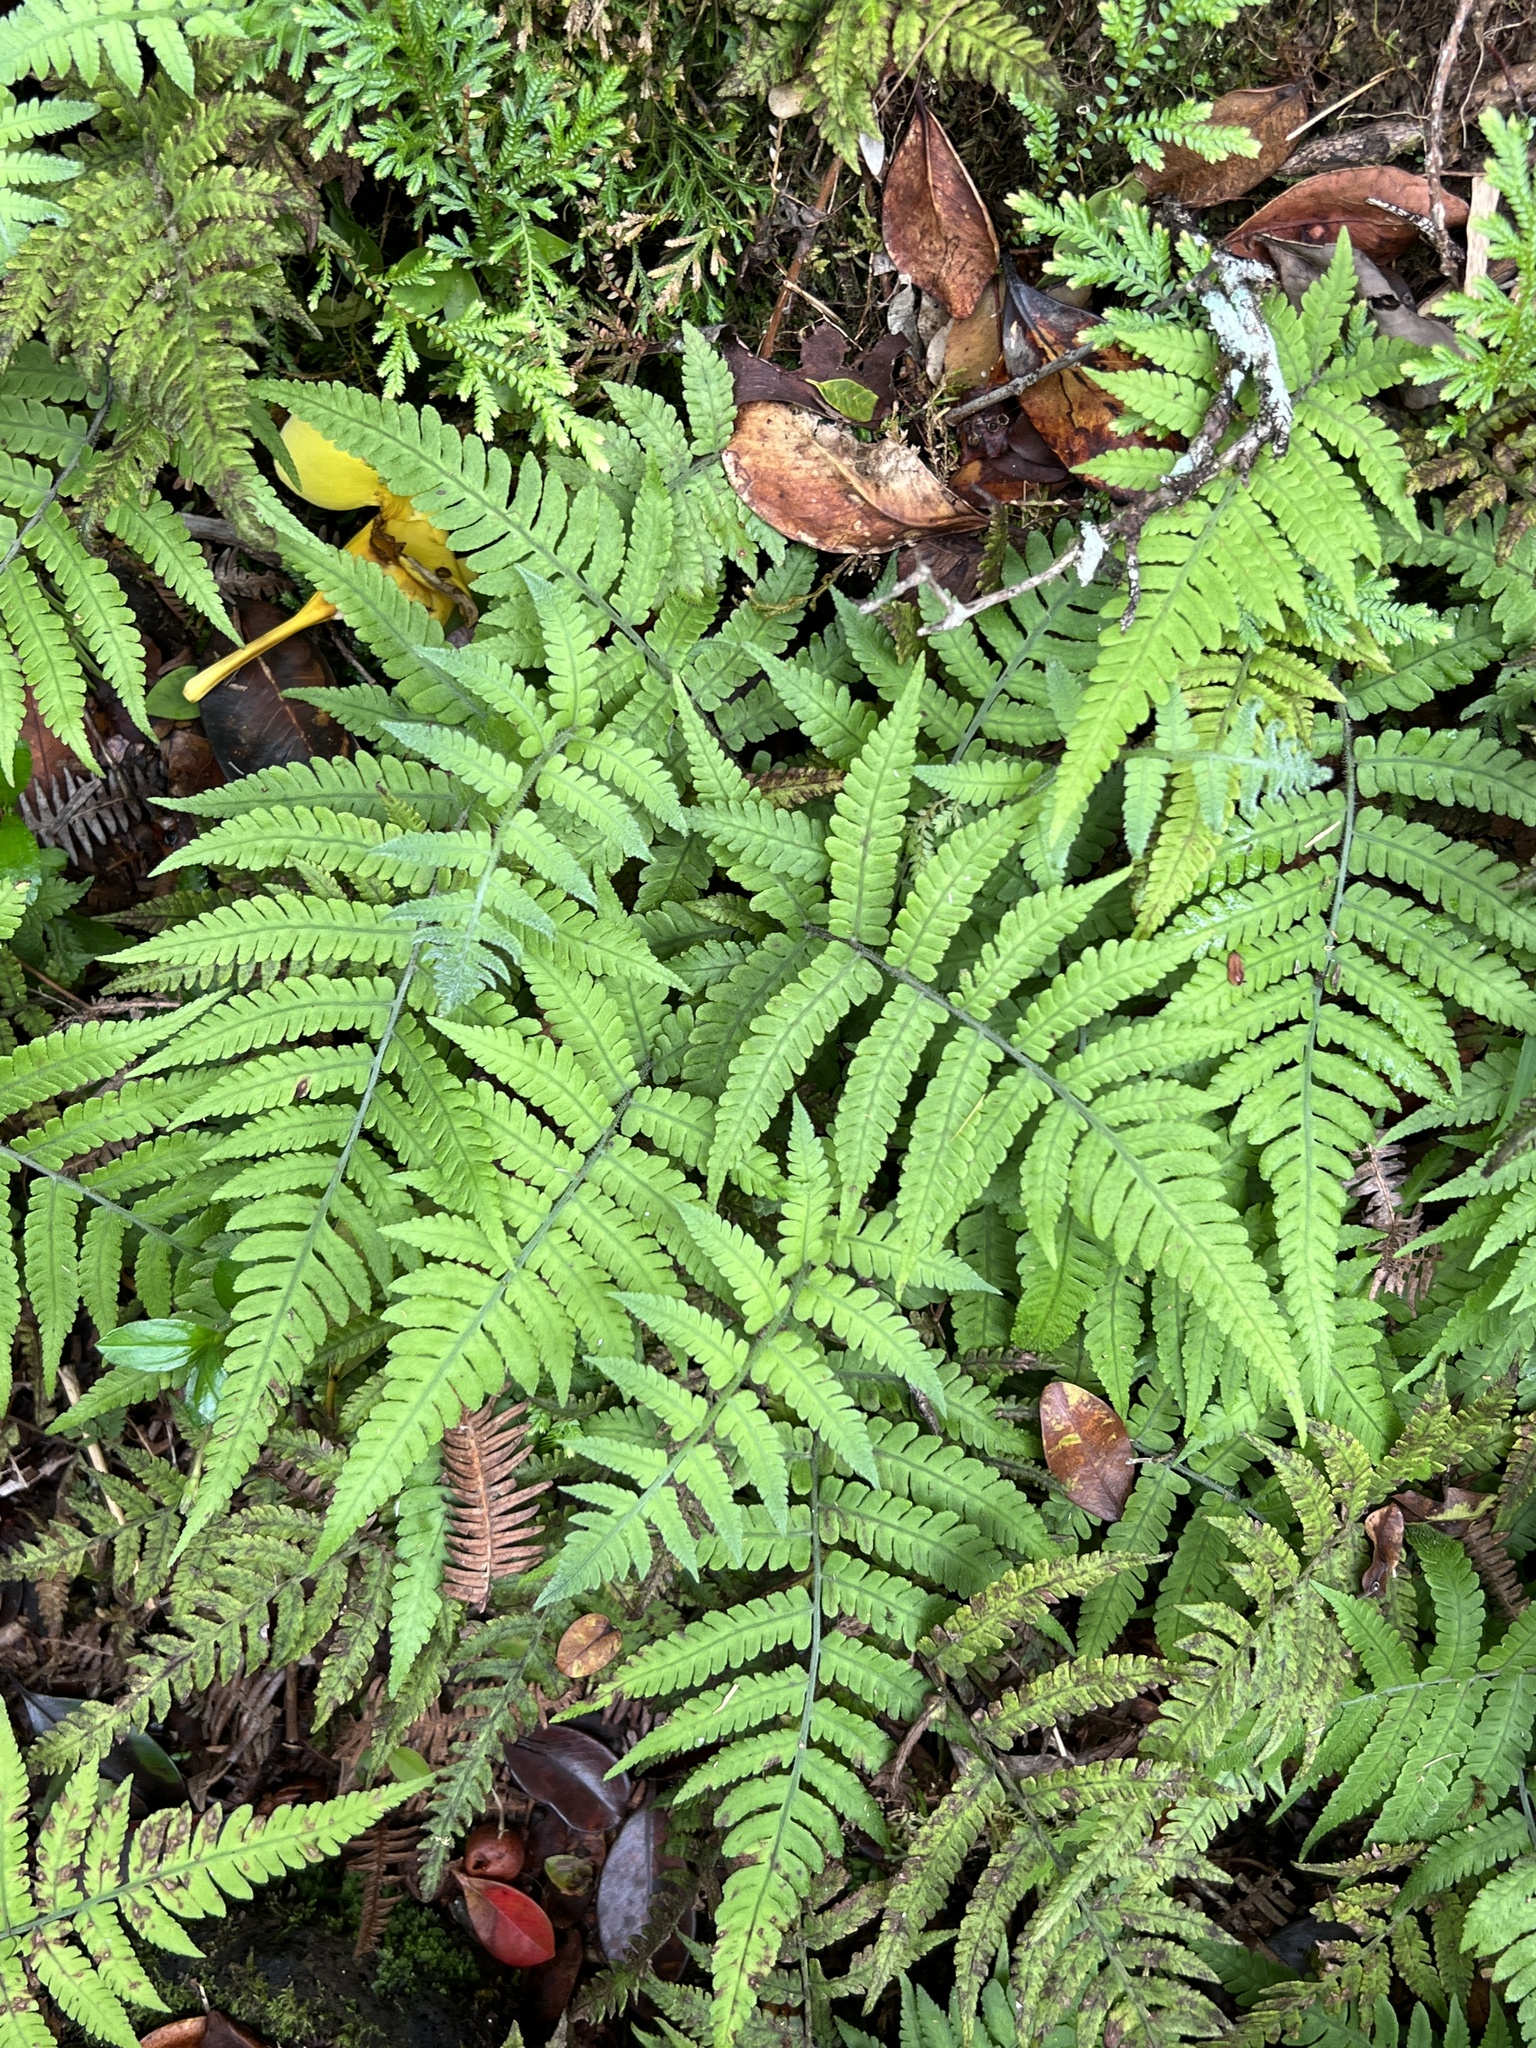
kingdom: Plantae
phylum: Tracheophyta
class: Polypodiopsida
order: Polypodiales
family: Athyriaceae
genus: Deparia
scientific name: Deparia petersenii
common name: Japanese false spleenwort
